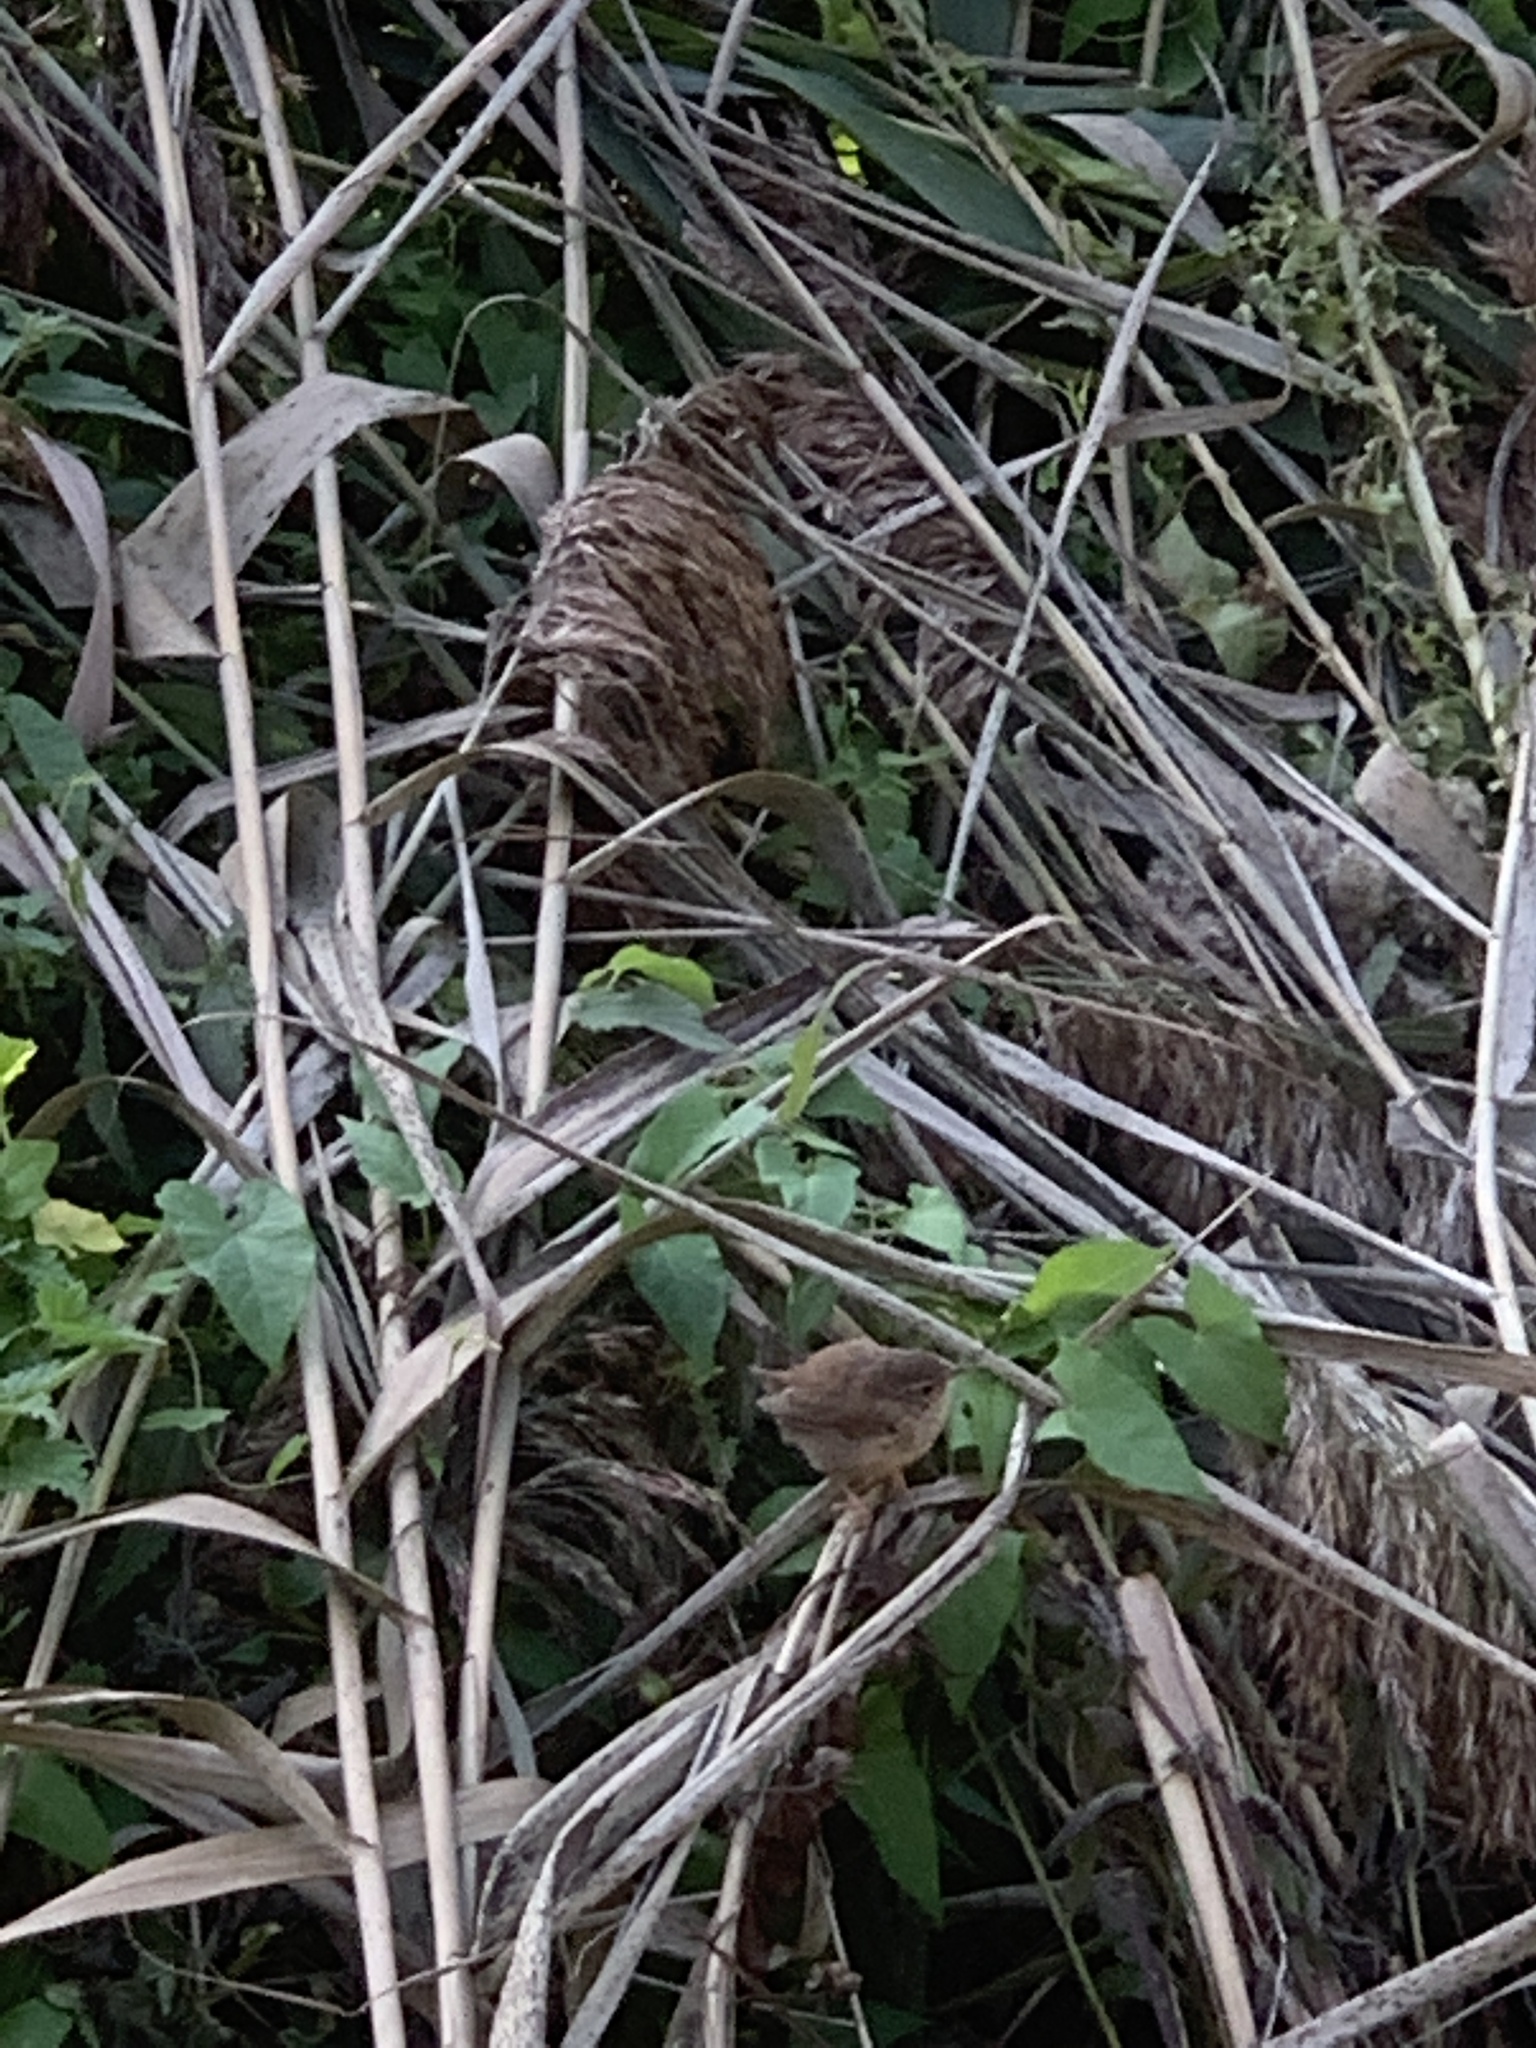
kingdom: Animalia
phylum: Chordata
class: Aves
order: Passeriformes
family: Troglodytidae
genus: Troglodytes
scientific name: Troglodytes troglodytes
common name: Eurasian wren
